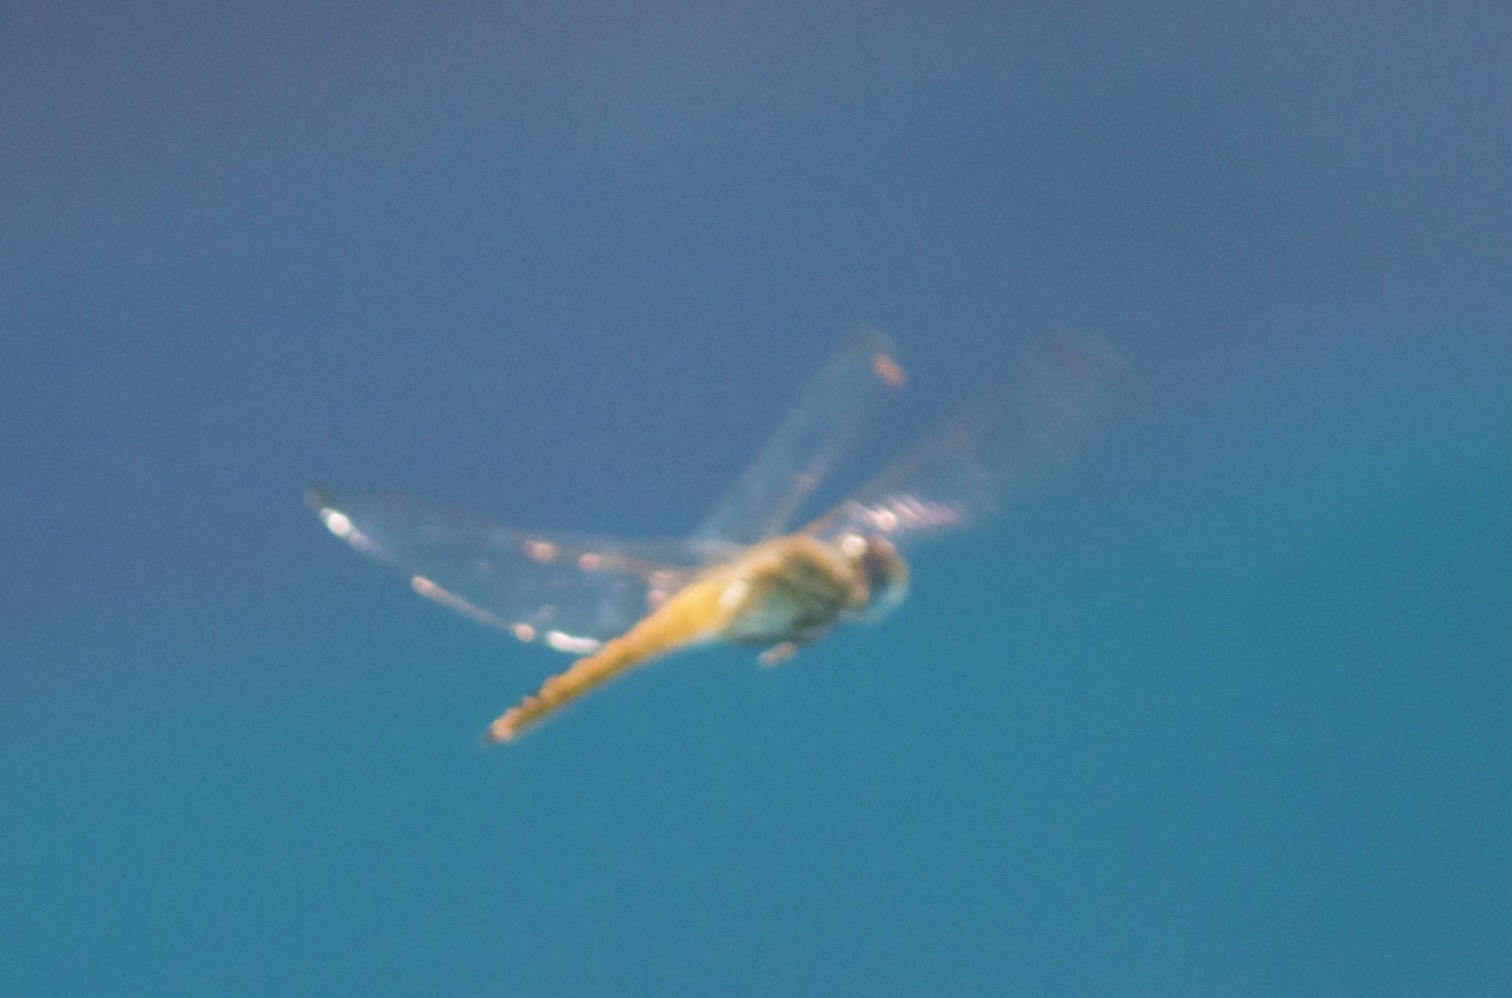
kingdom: Animalia
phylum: Arthropoda
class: Insecta
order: Odonata
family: Libellulidae
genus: Pantala
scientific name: Pantala flavescens
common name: Wandering glider
